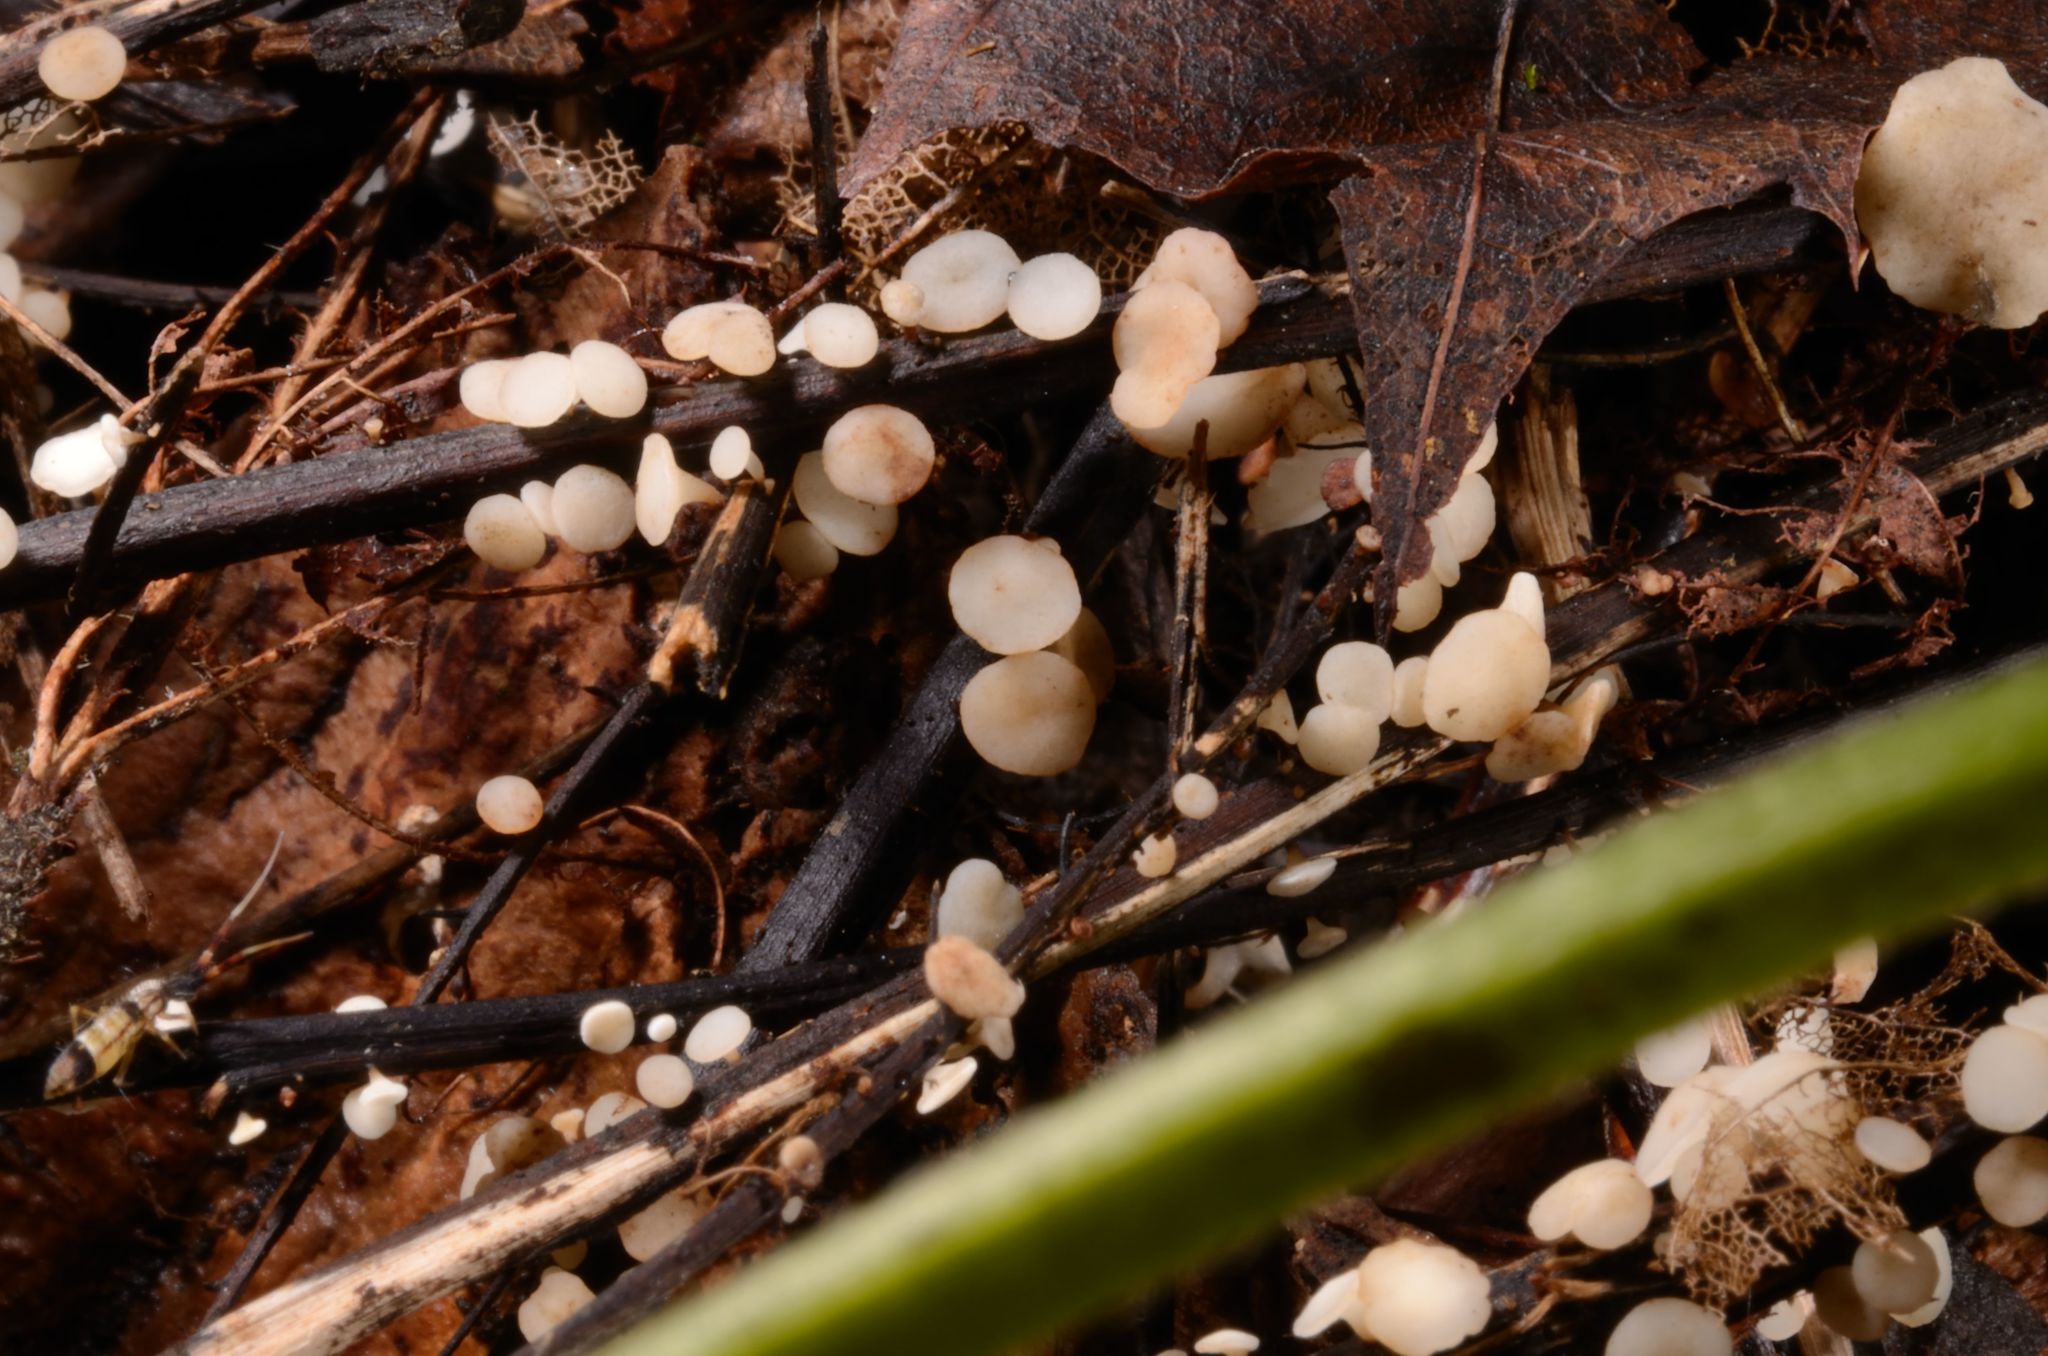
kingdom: Fungi
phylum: Ascomycota
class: Leotiomycetes
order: Helotiales
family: Helotiaceae
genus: Hymenoscyphus
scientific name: Hymenoscyphus albidus
